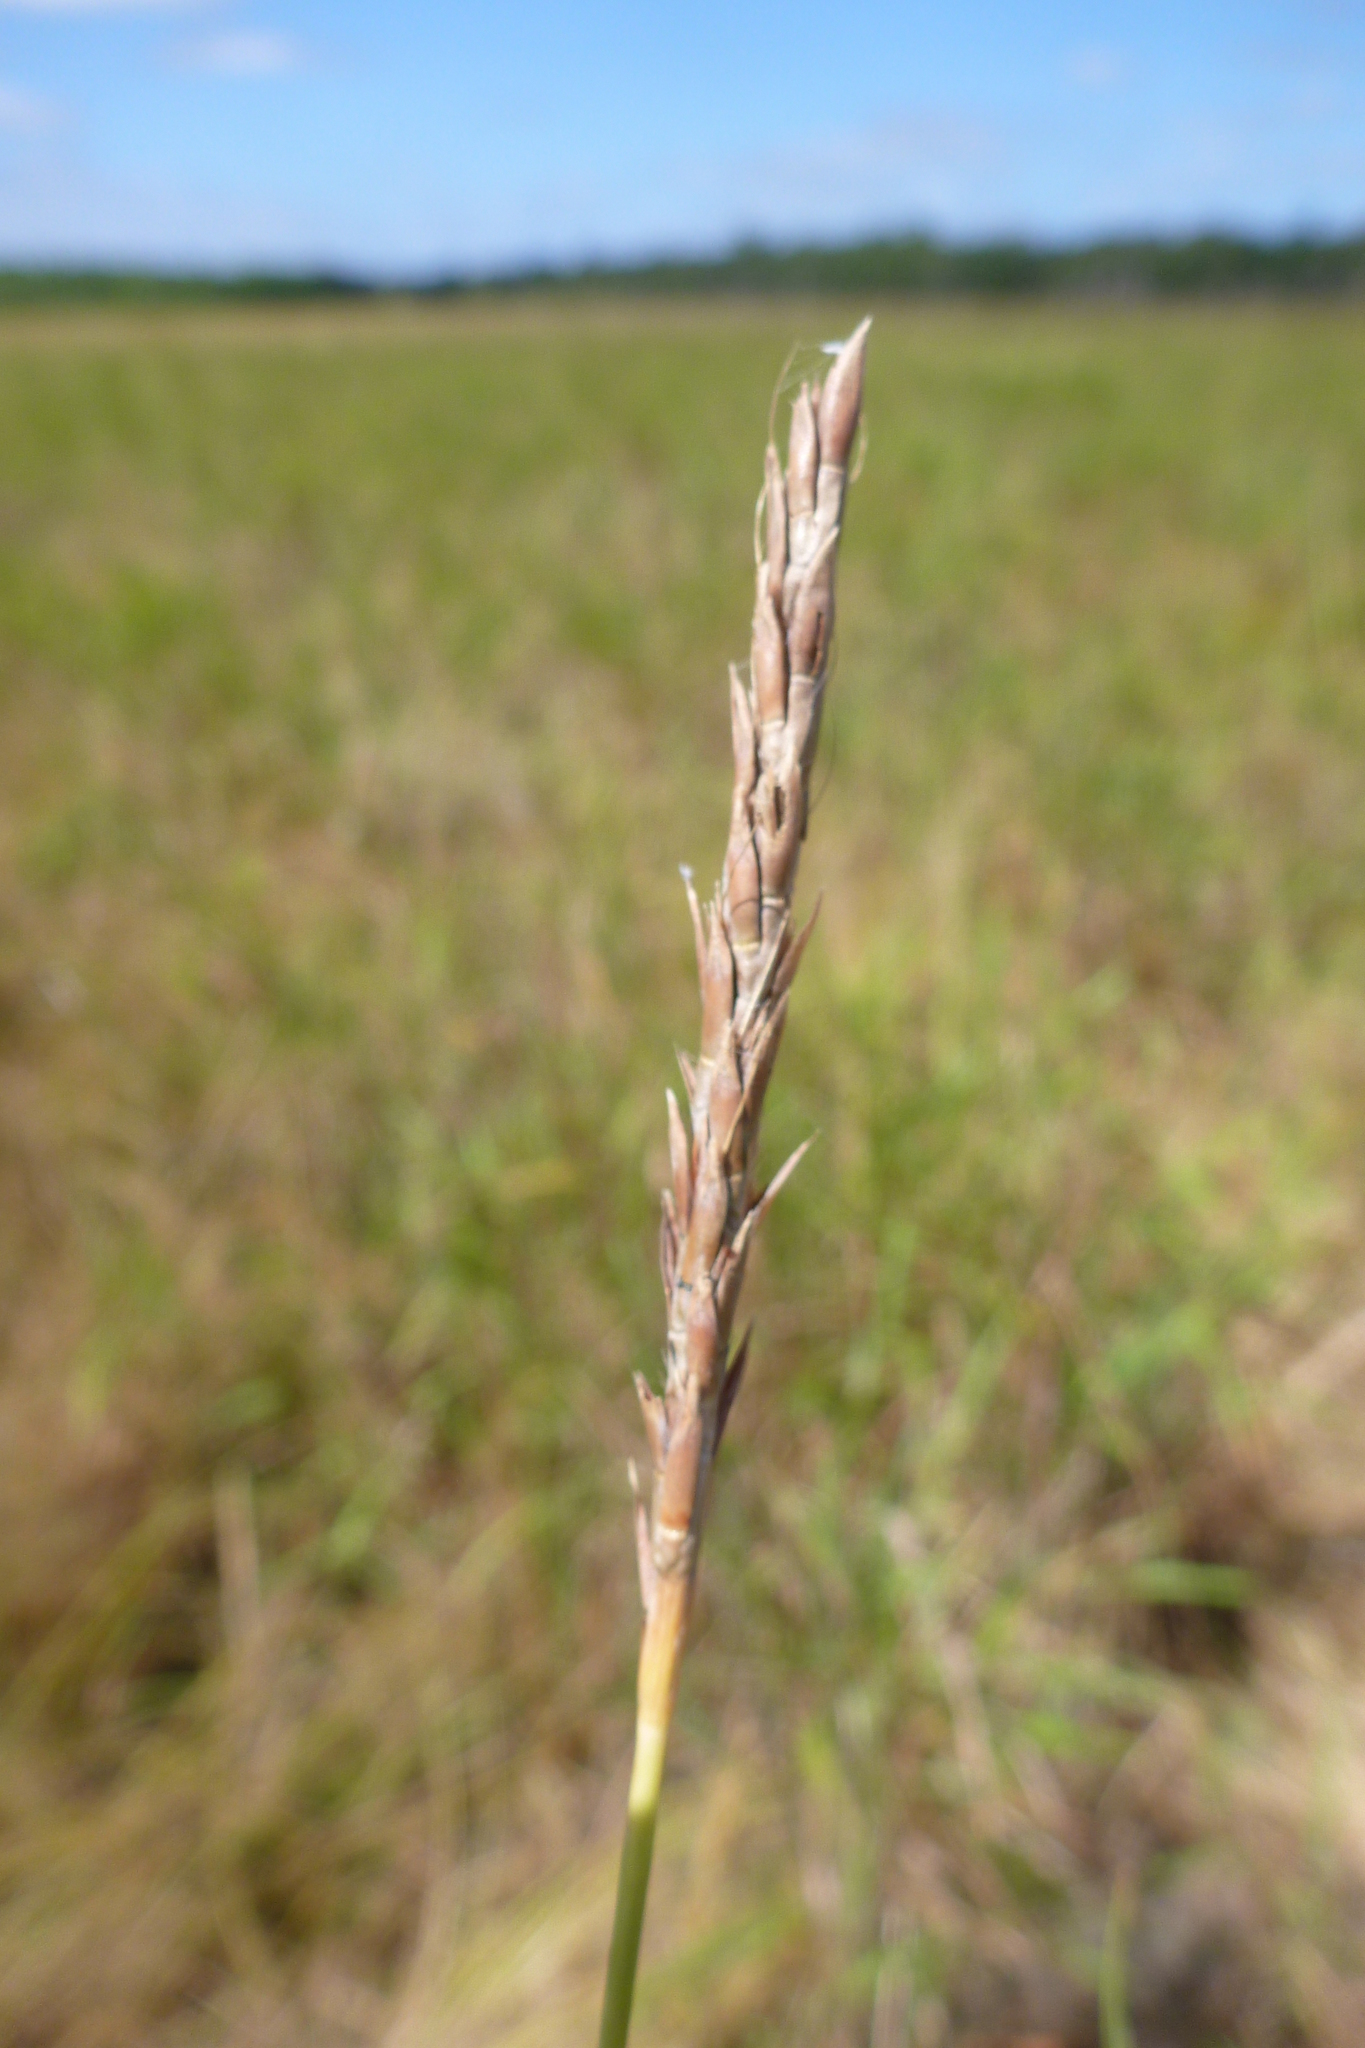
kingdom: Plantae
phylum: Tracheophyta
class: Liliopsida
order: Poales
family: Poaceae
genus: Ischaemum
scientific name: Ischaemum australe
